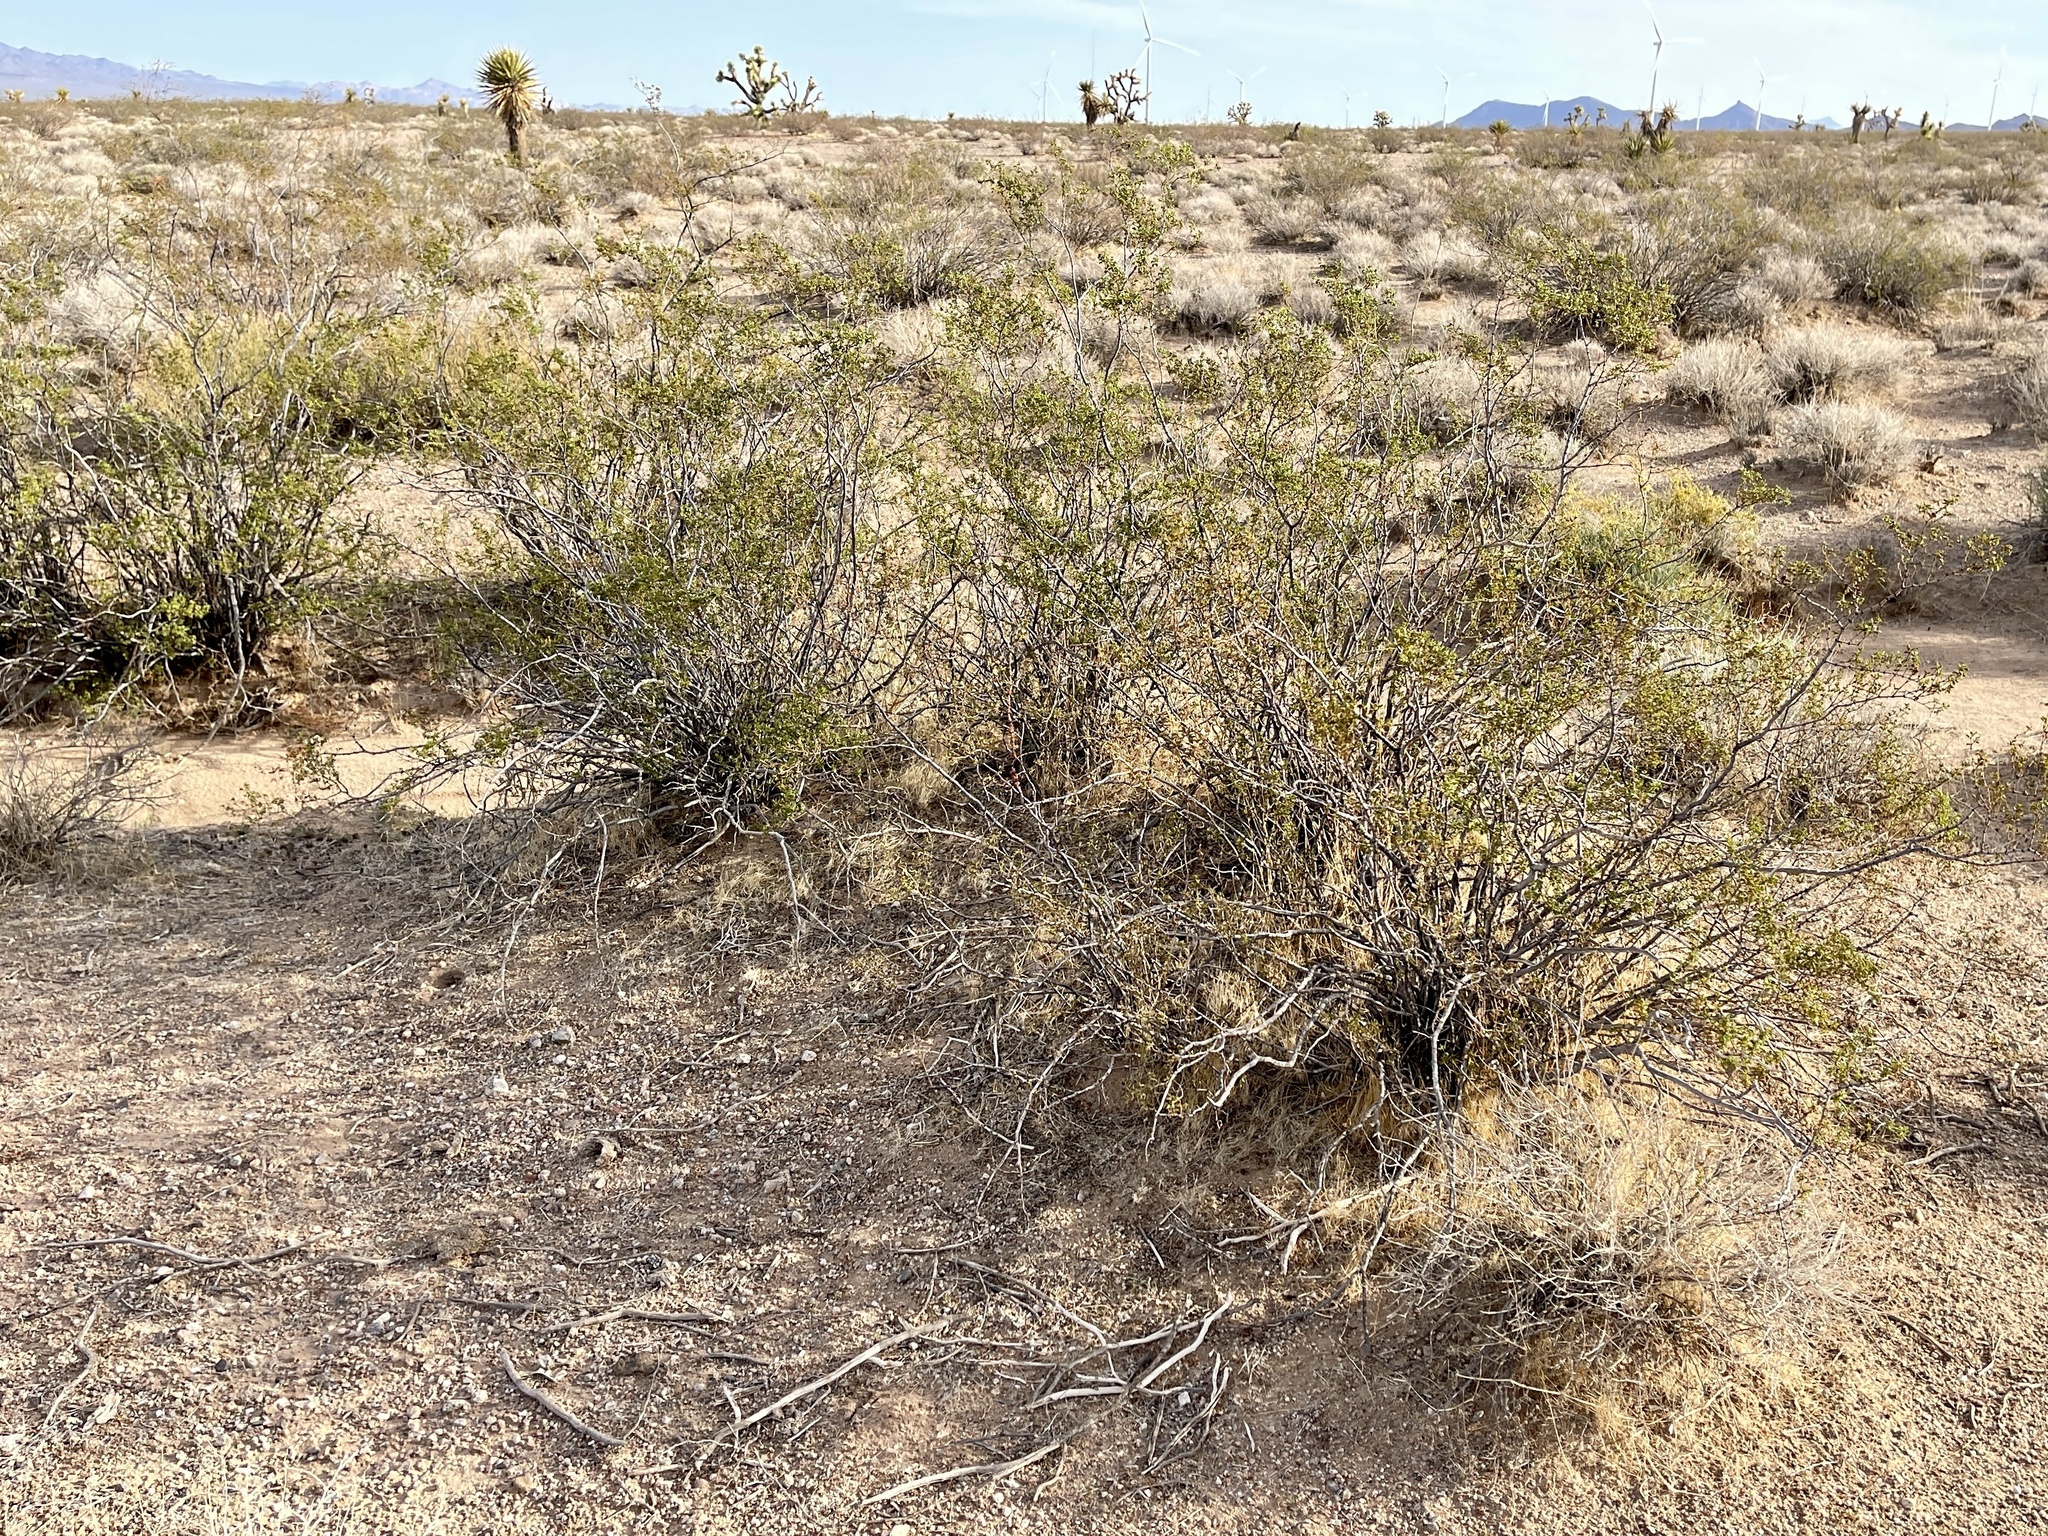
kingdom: Plantae
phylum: Tracheophyta
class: Magnoliopsida
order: Zygophyllales
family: Zygophyllaceae
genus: Larrea
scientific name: Larrea tridentata
